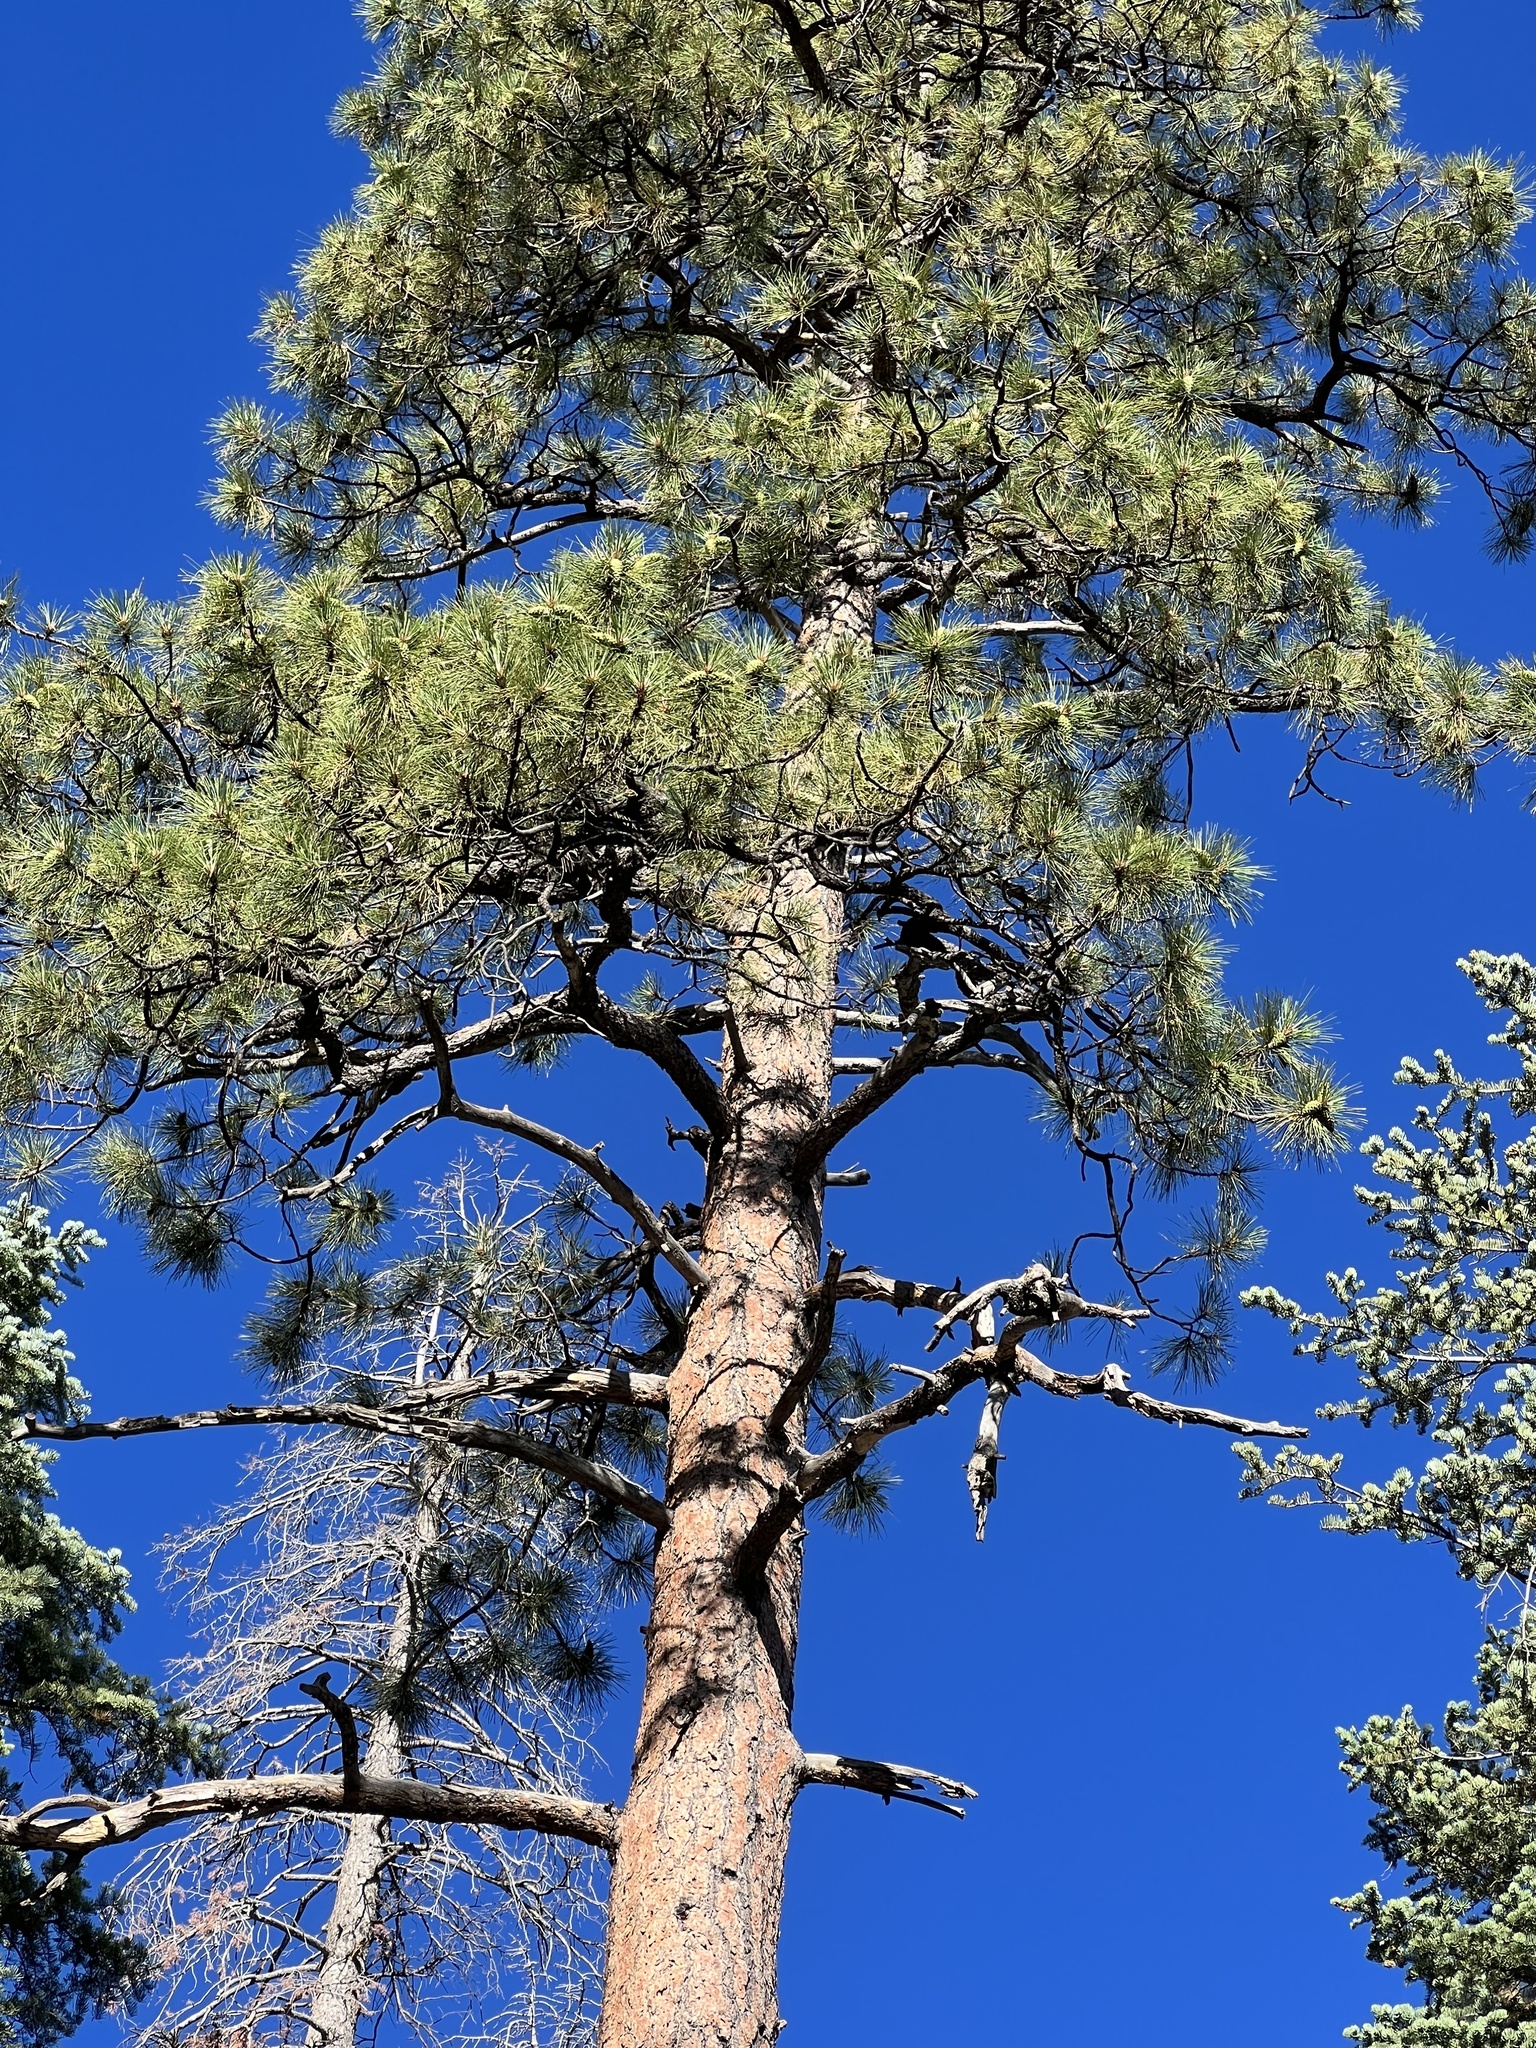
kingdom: Plantae
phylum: Tracheophyta
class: Pinopsida
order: Pinales
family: Pinaceae
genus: Pinus
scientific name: Pinus ponderosa
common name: Western yellow-pine
